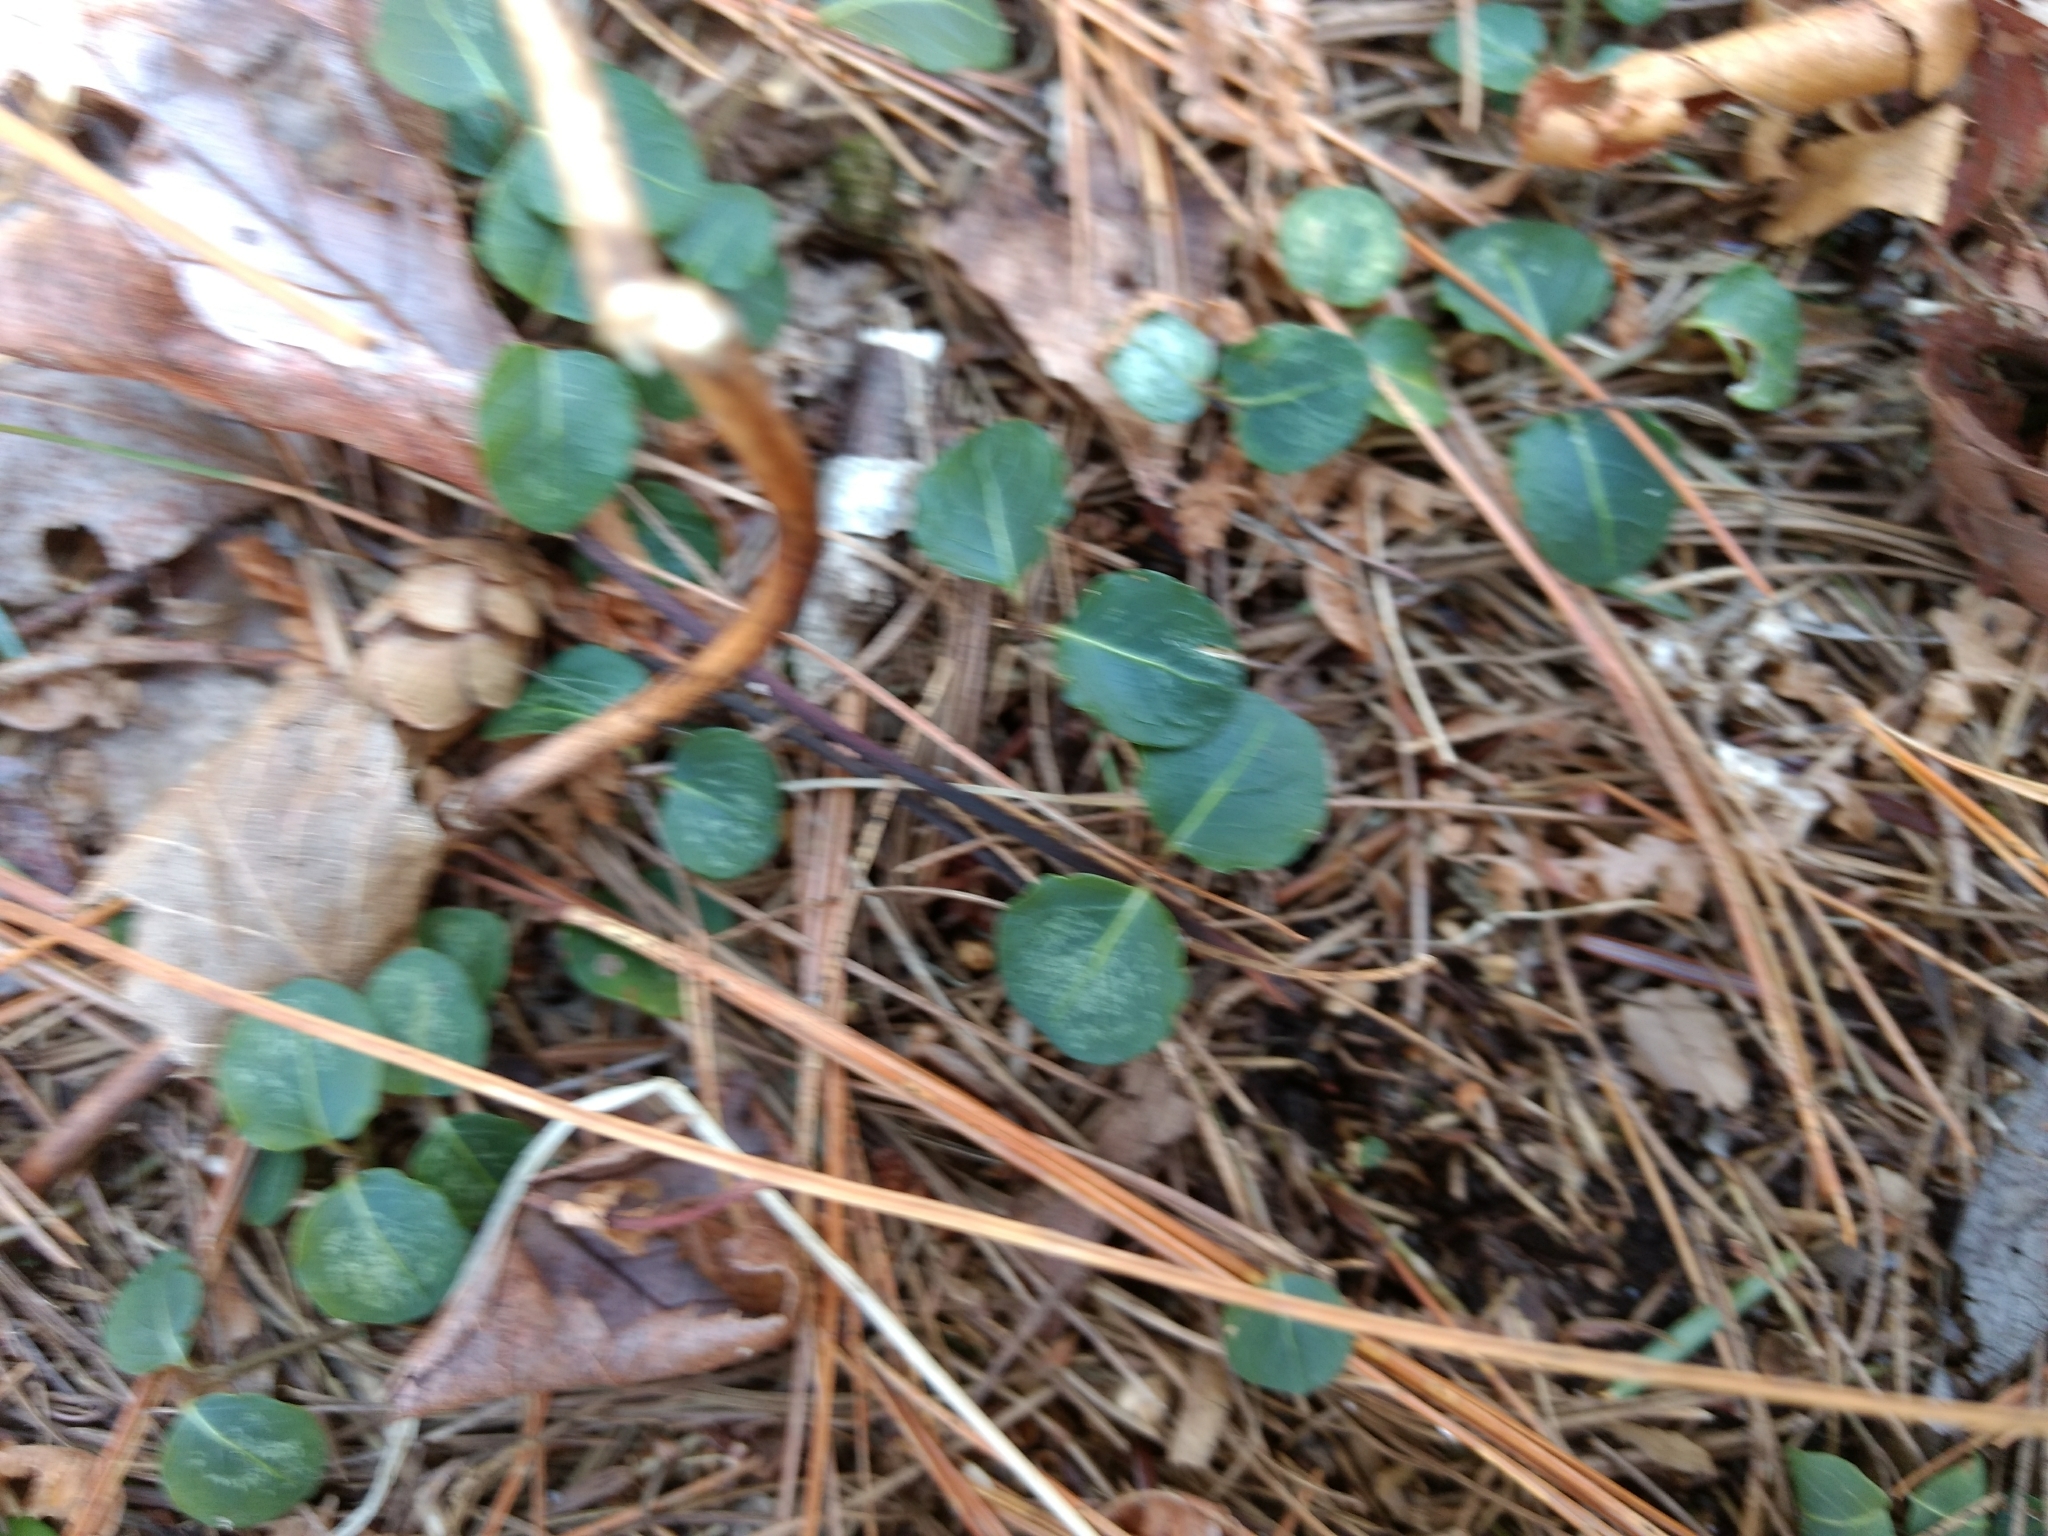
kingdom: Plantae
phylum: Tracheophyta
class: Magnoliopsida
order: Gentianales
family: Rubiaceae
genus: Mitchella
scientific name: Mitchella repens
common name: Partridge-berry
